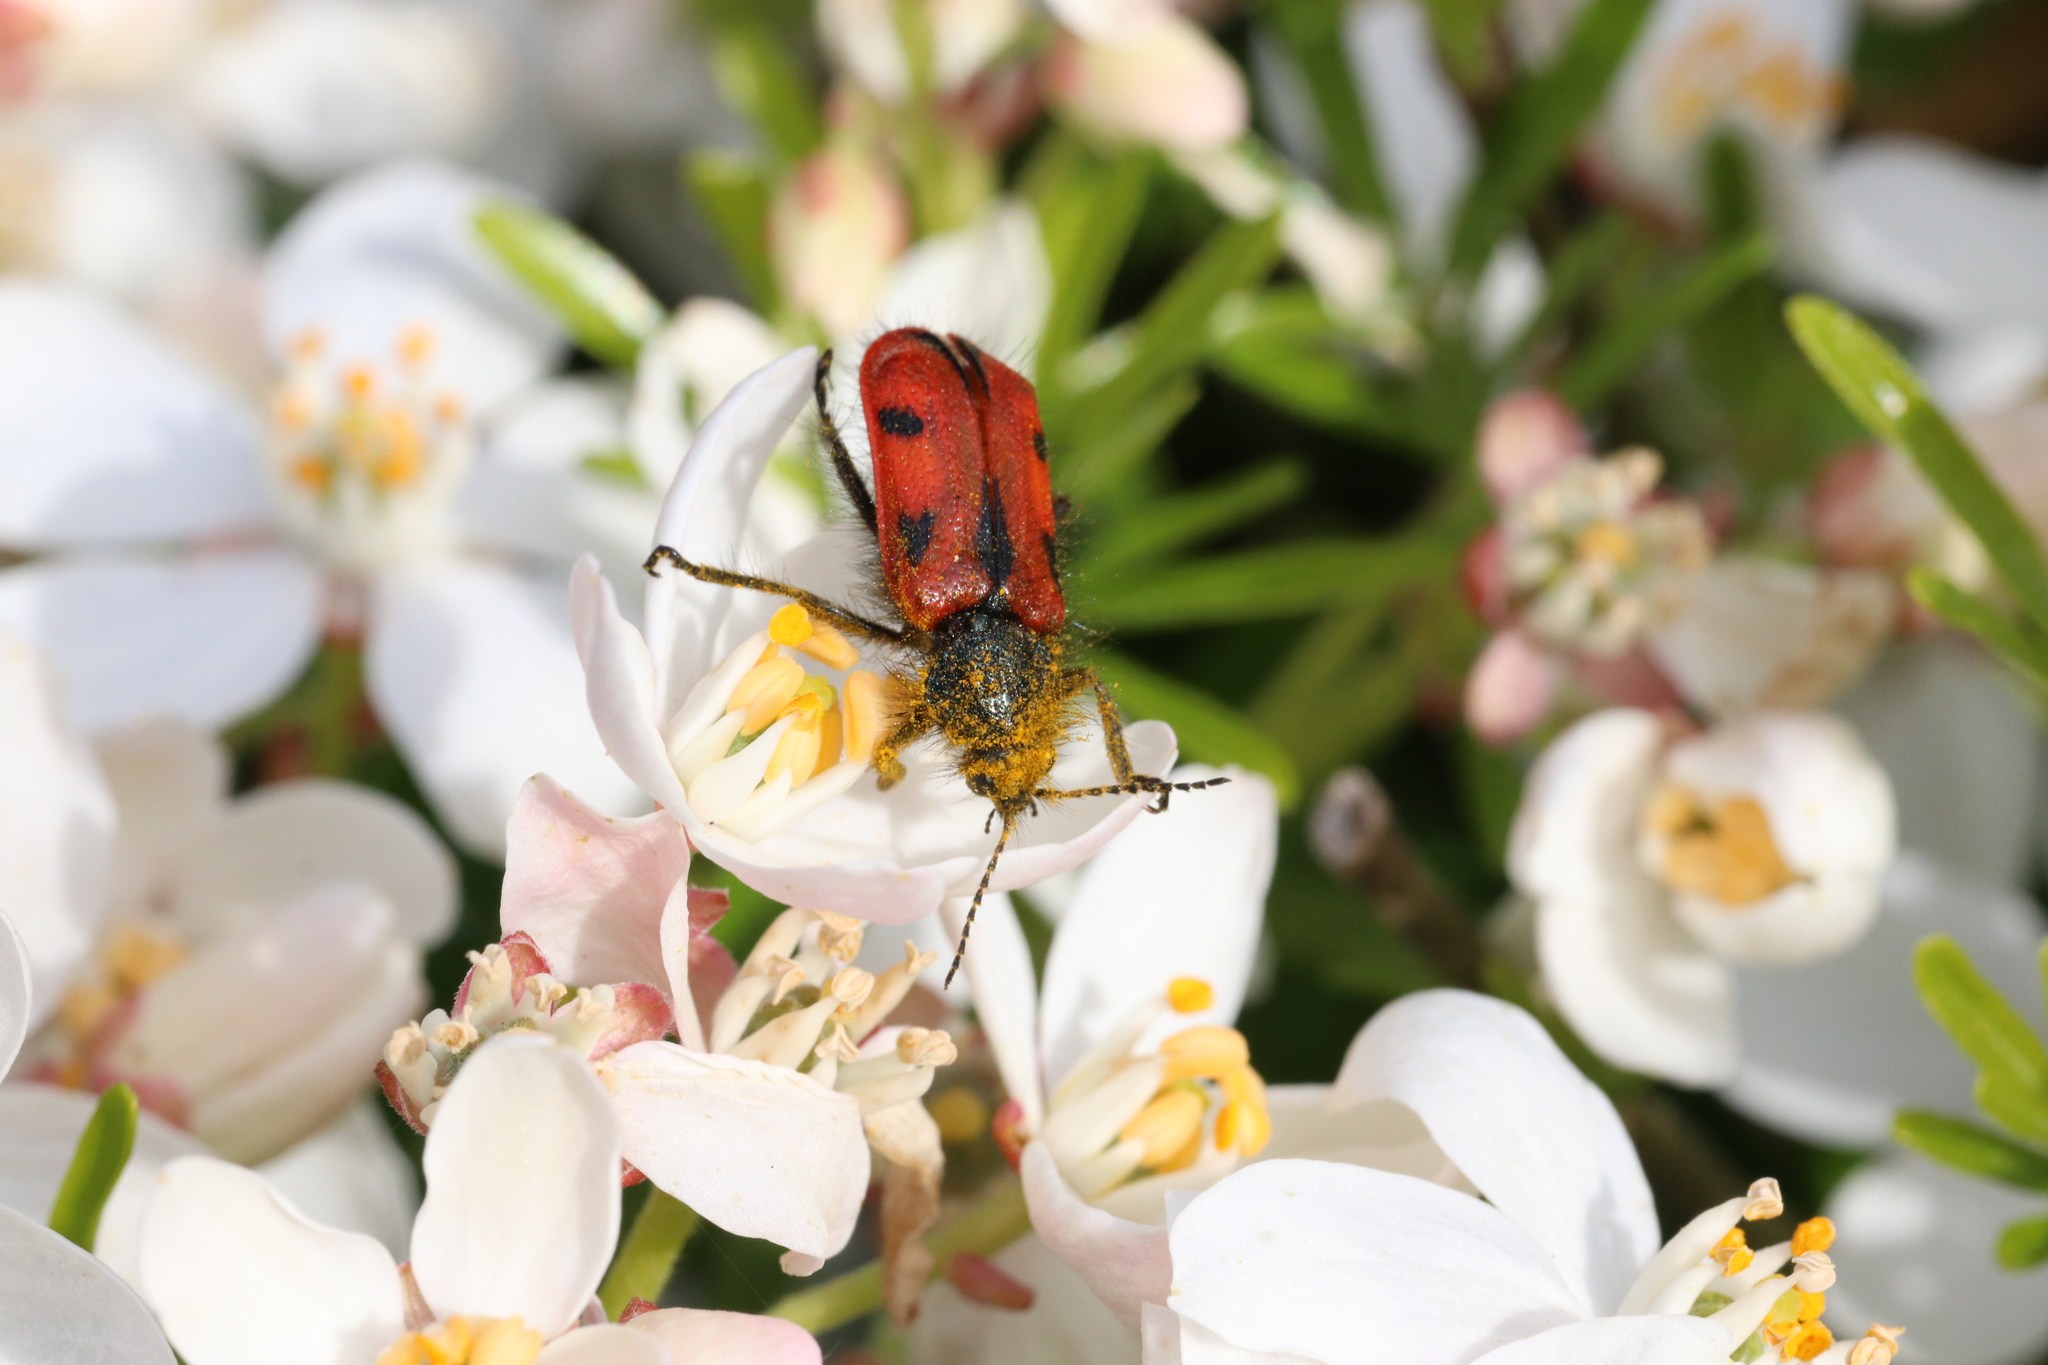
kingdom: Animalia
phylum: Arthropoda
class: Insecta
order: Coleoptera
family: Melyridae
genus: Astylus
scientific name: Astylus
